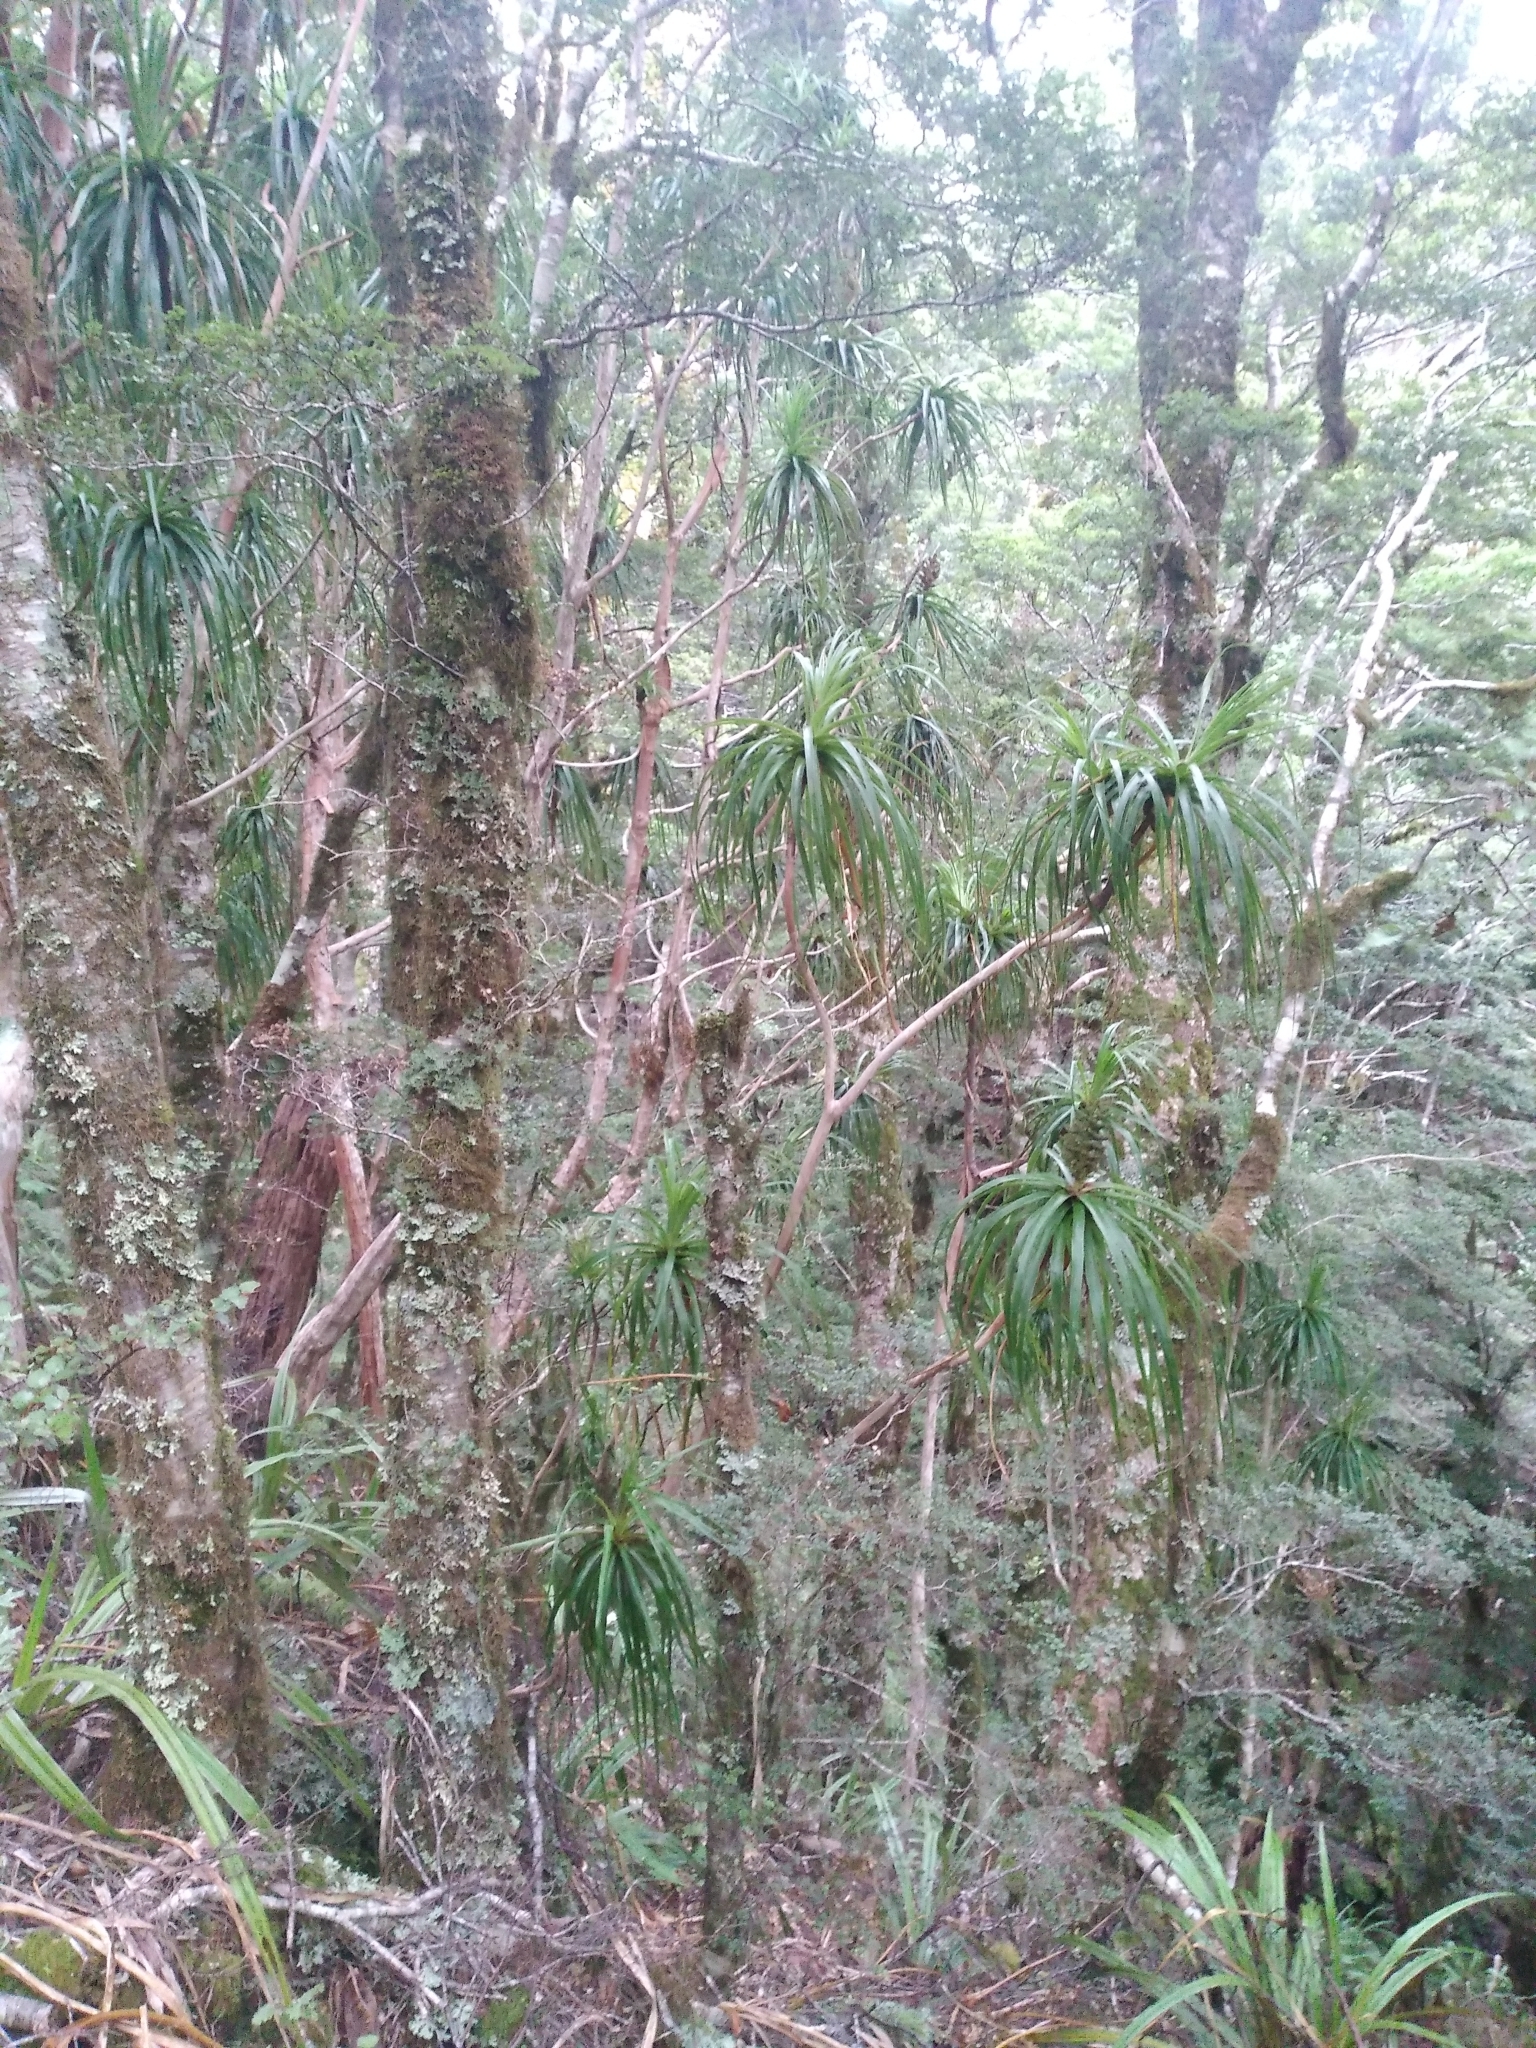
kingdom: Plantae
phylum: Tracheophyta
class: Magnoliopsida
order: Ericales
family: Ericaceae
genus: Dracophyllum
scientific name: Dracophyllum traversii
